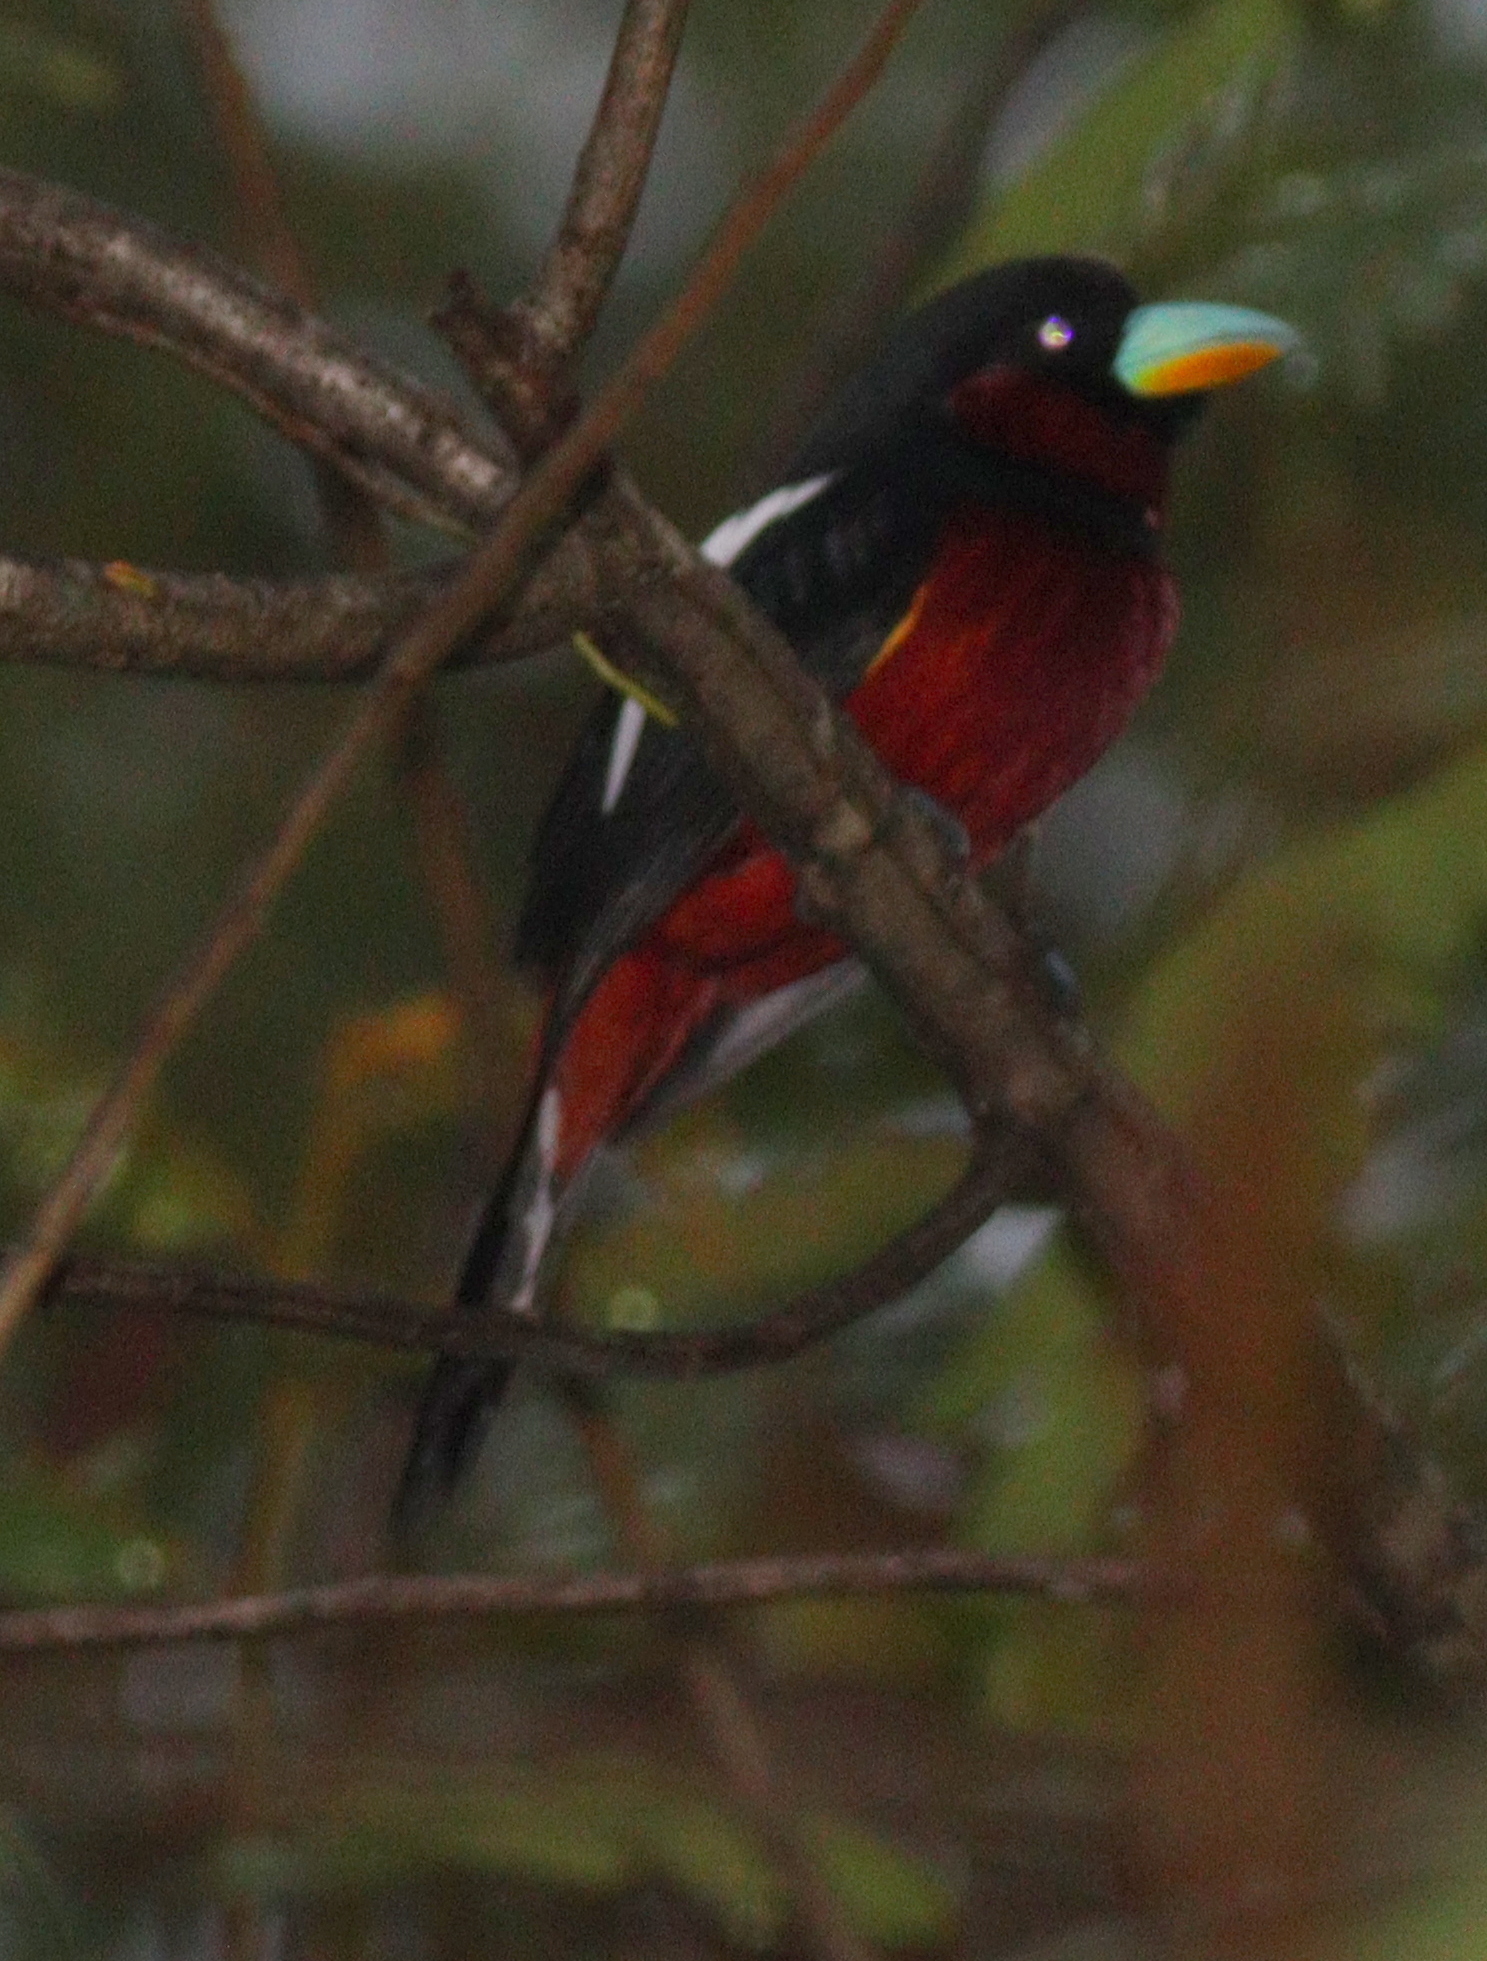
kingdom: Animalia
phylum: Chordata
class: Aves
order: Passeriformes
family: Eurylaimidae
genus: Cymbirhynchus
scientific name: Cymbirhynchus macrorhynchos
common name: Black-and-red broadbill
